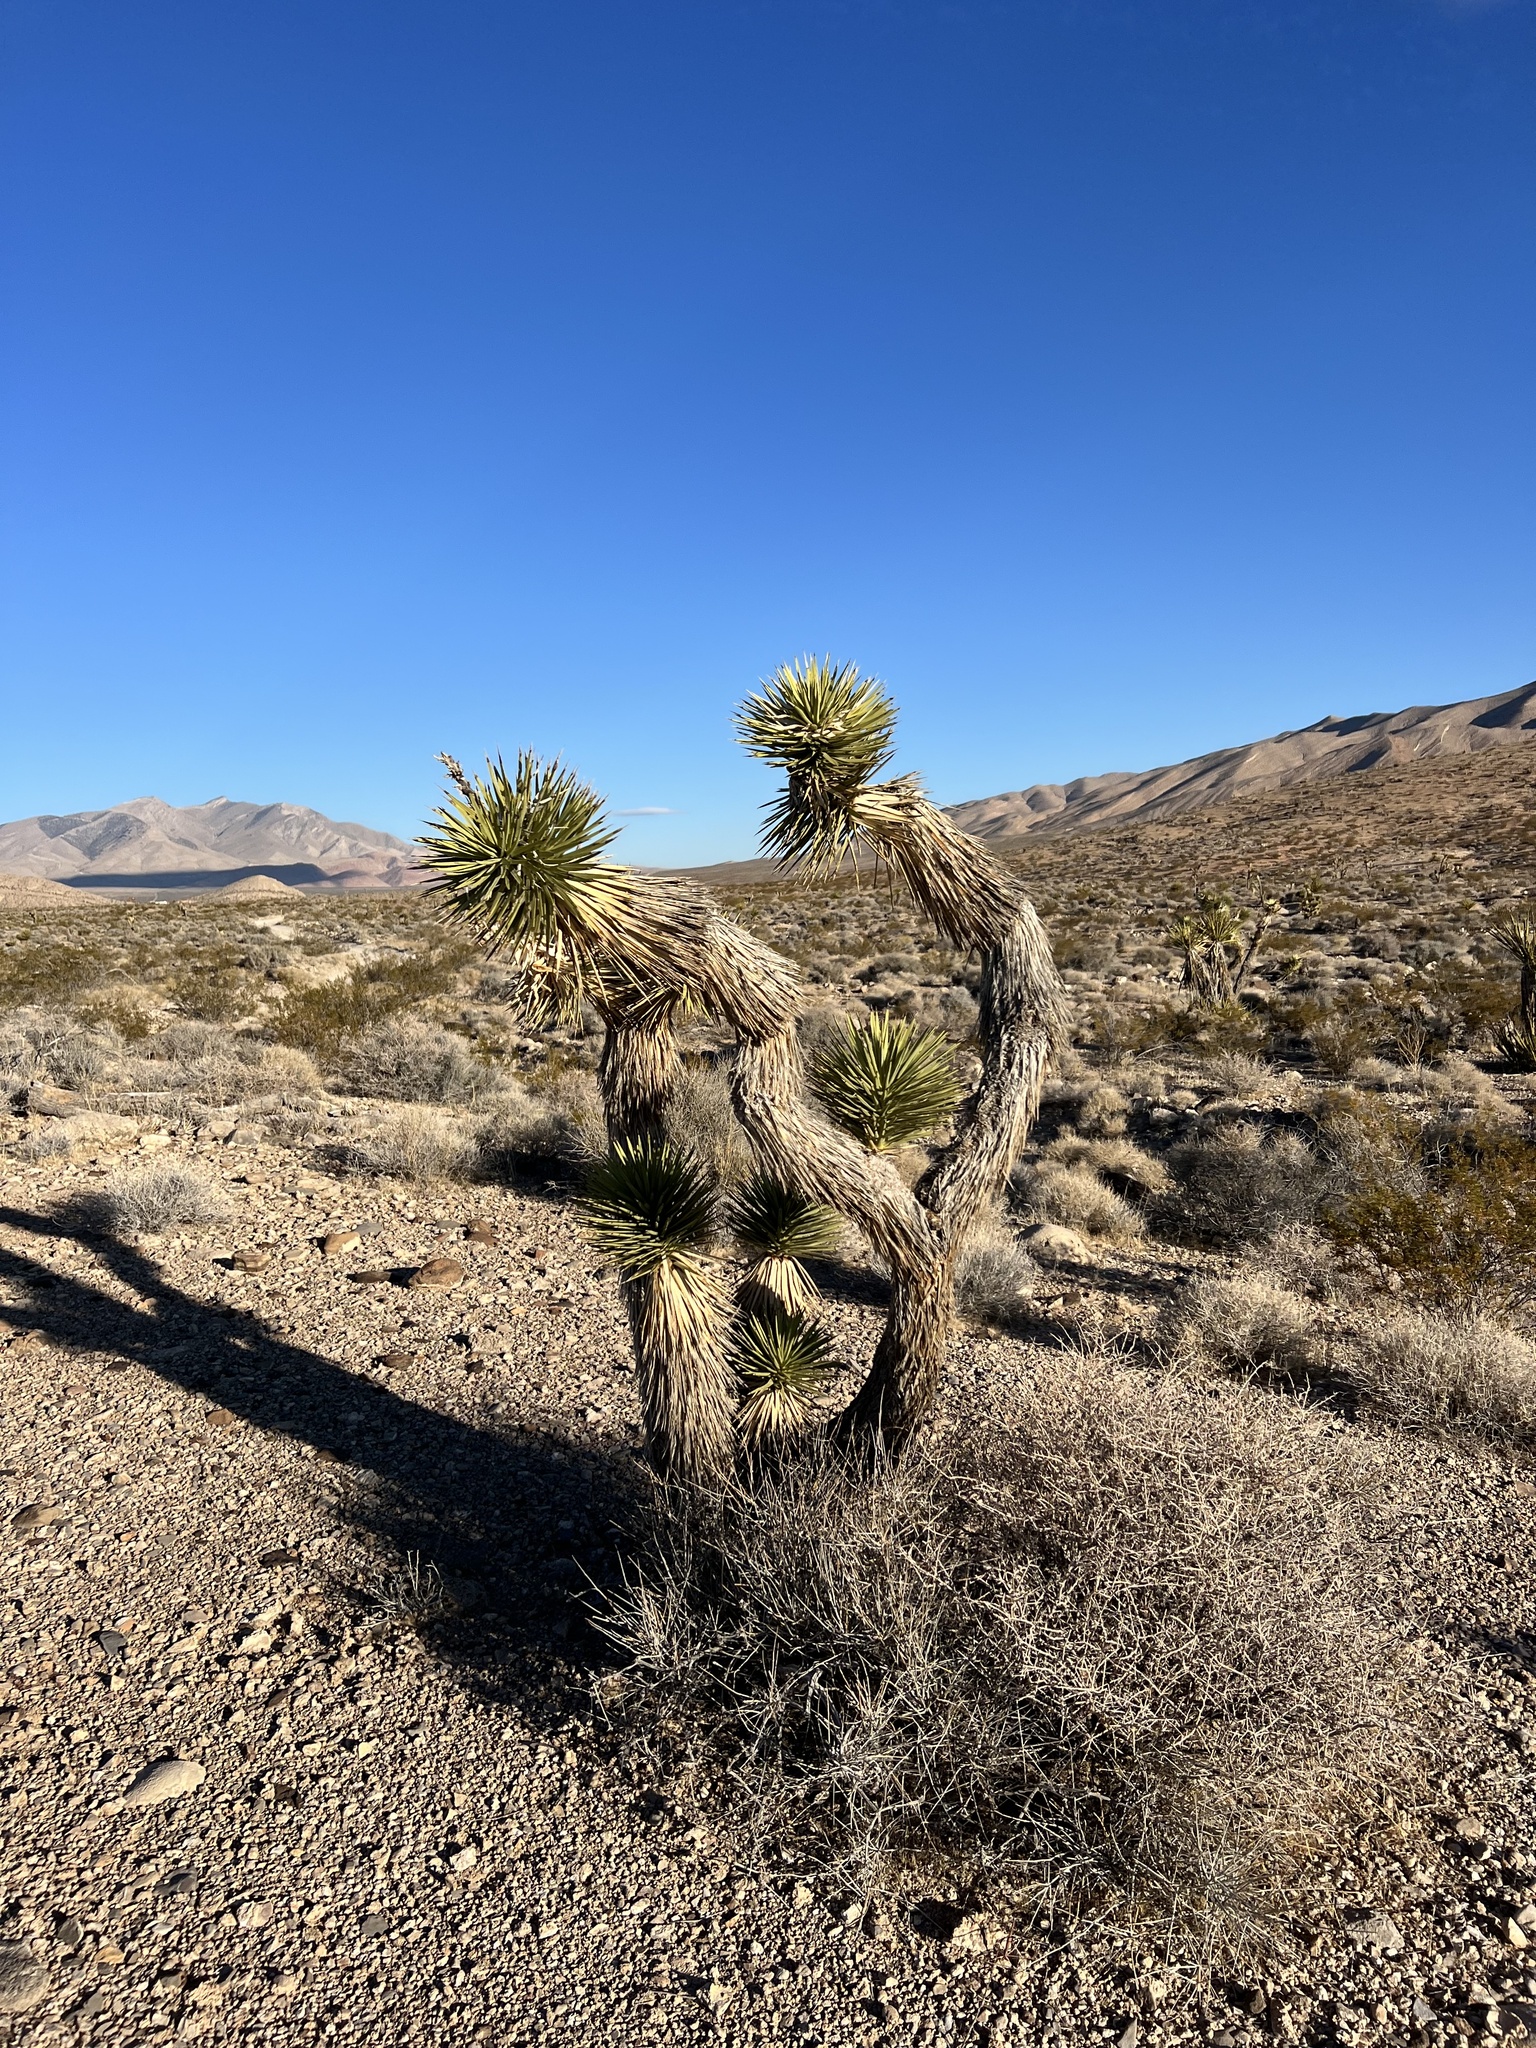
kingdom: Plantae
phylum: Tracheophyta
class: Liliopsida
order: Asparagales
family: Asparagaceae
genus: Yucca
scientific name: Yucca brevifolia
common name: Joshua tree
